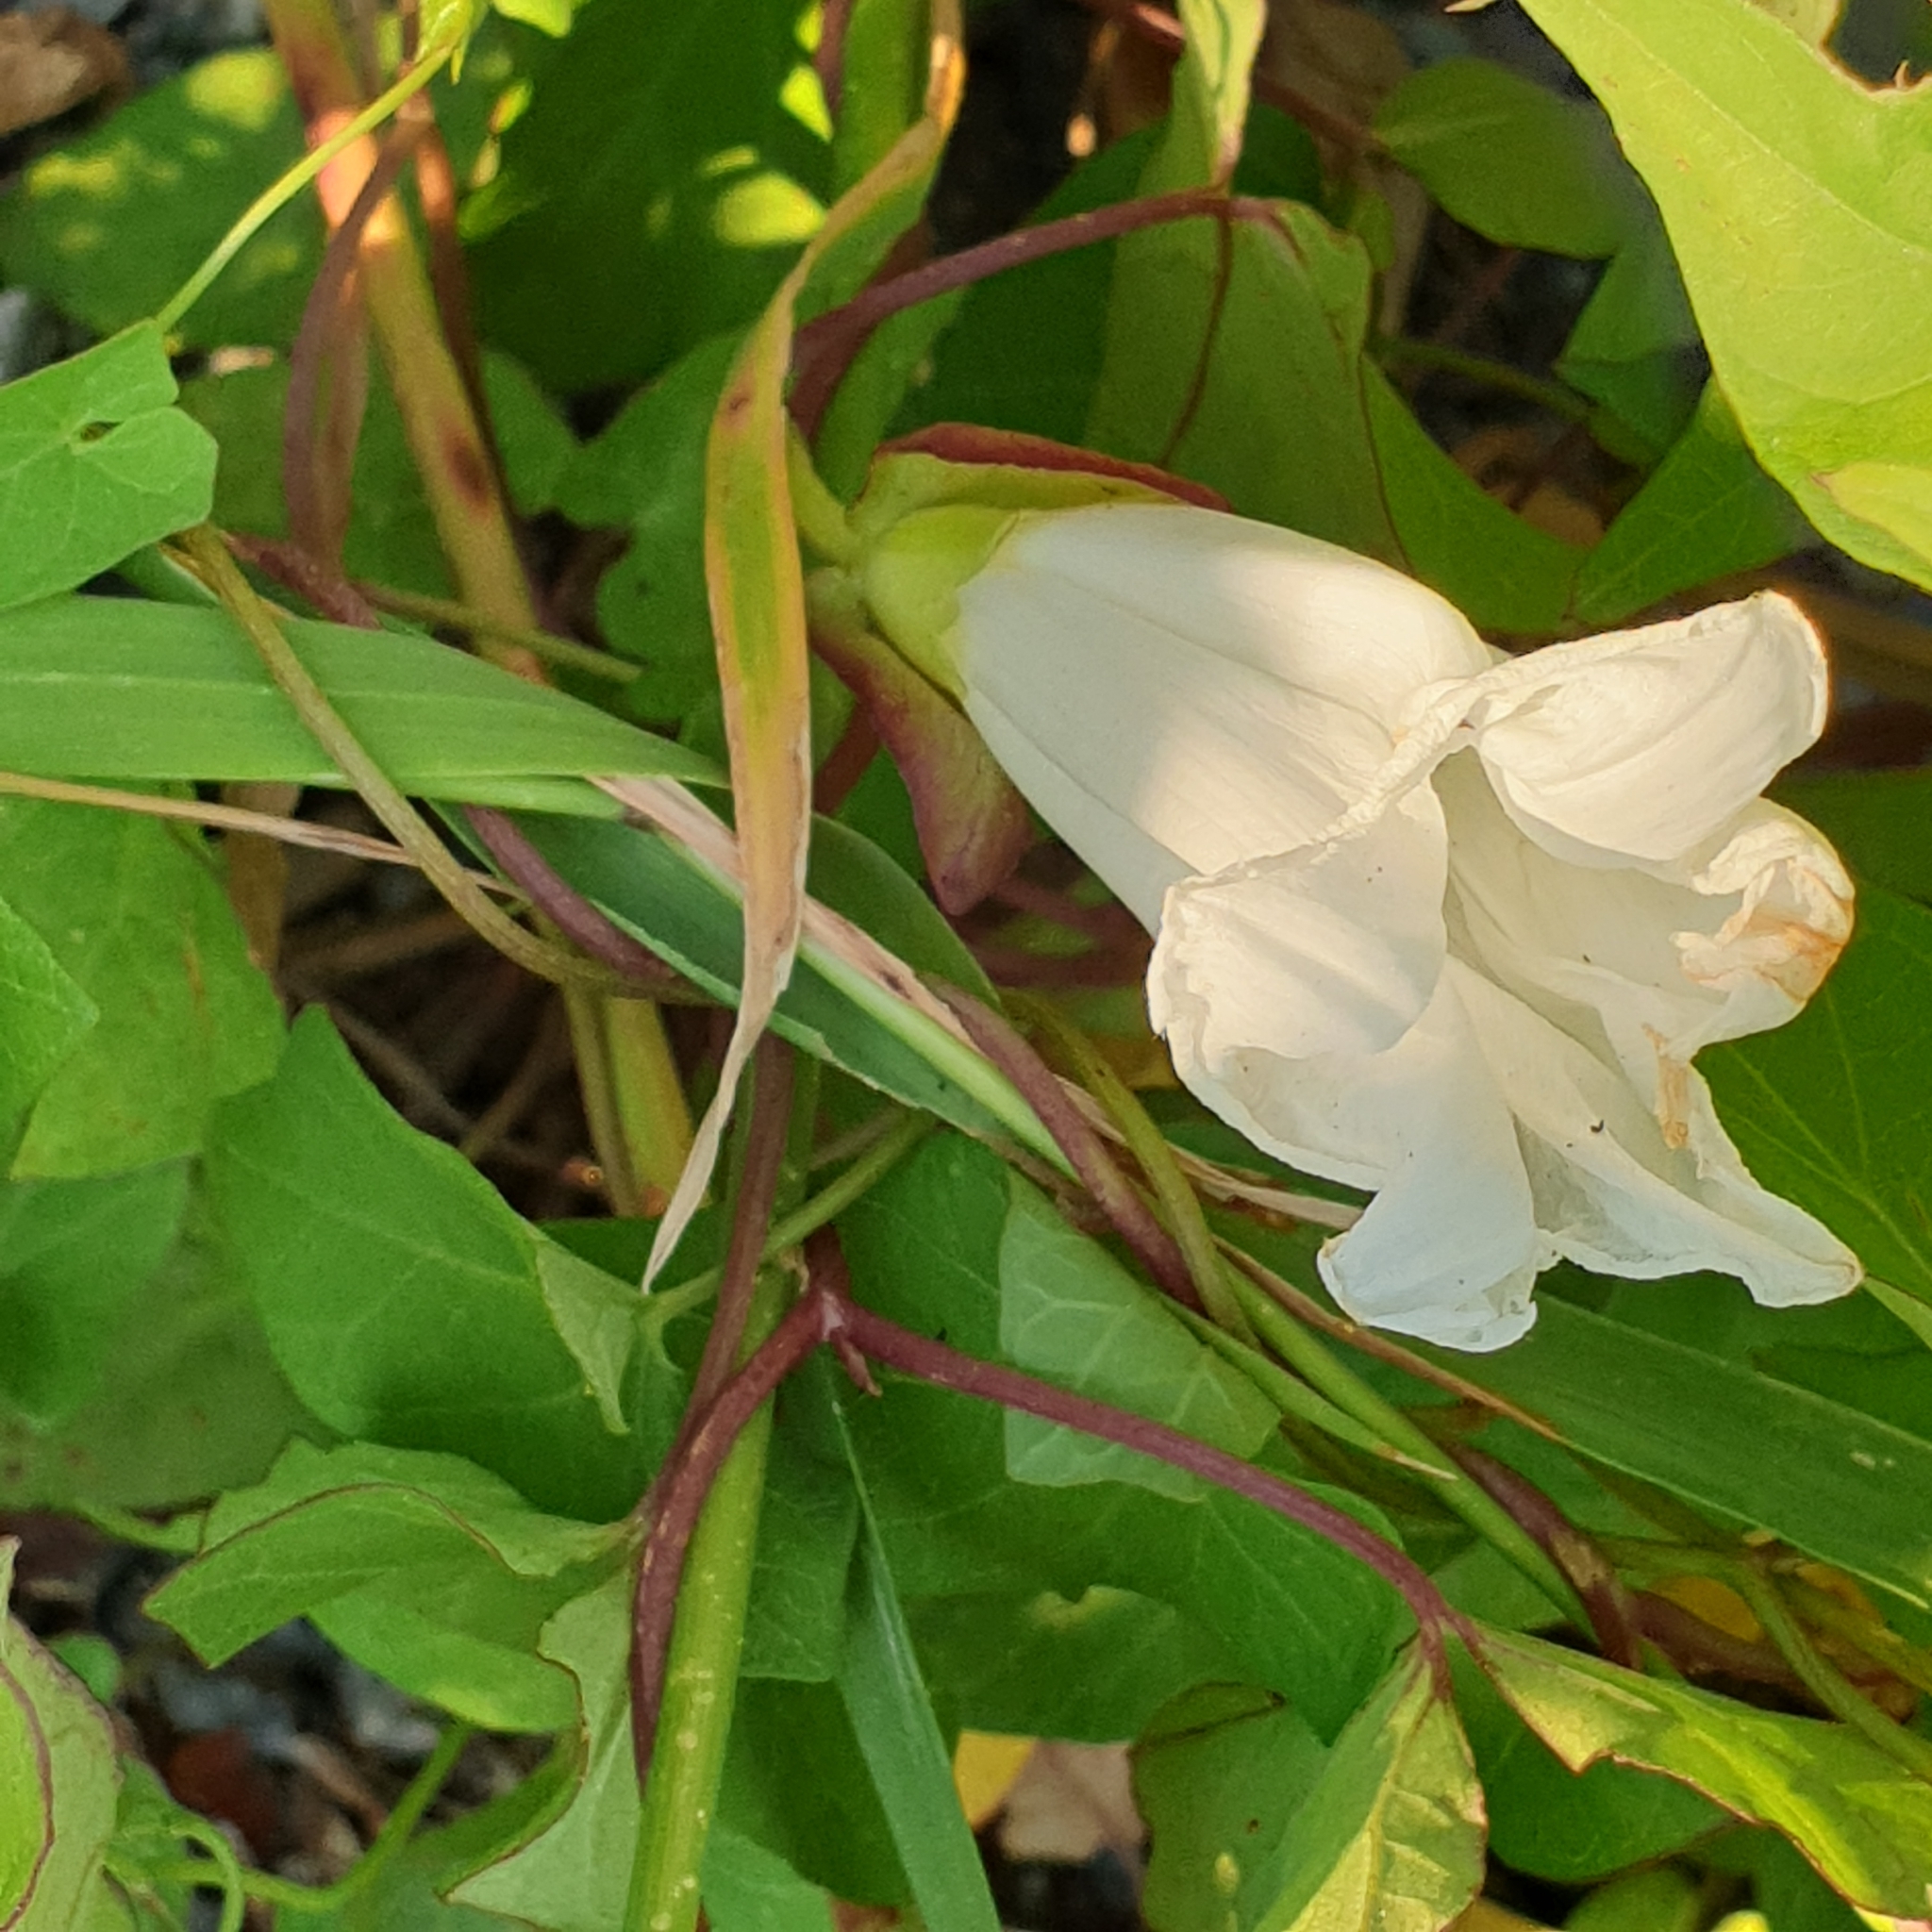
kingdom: Plantae
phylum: Tracheophyta
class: Magnoliopsida
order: Solanales
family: Convolvulaceae
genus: Calystegia
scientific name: Calystegia sepium
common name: Hedge bindweed
